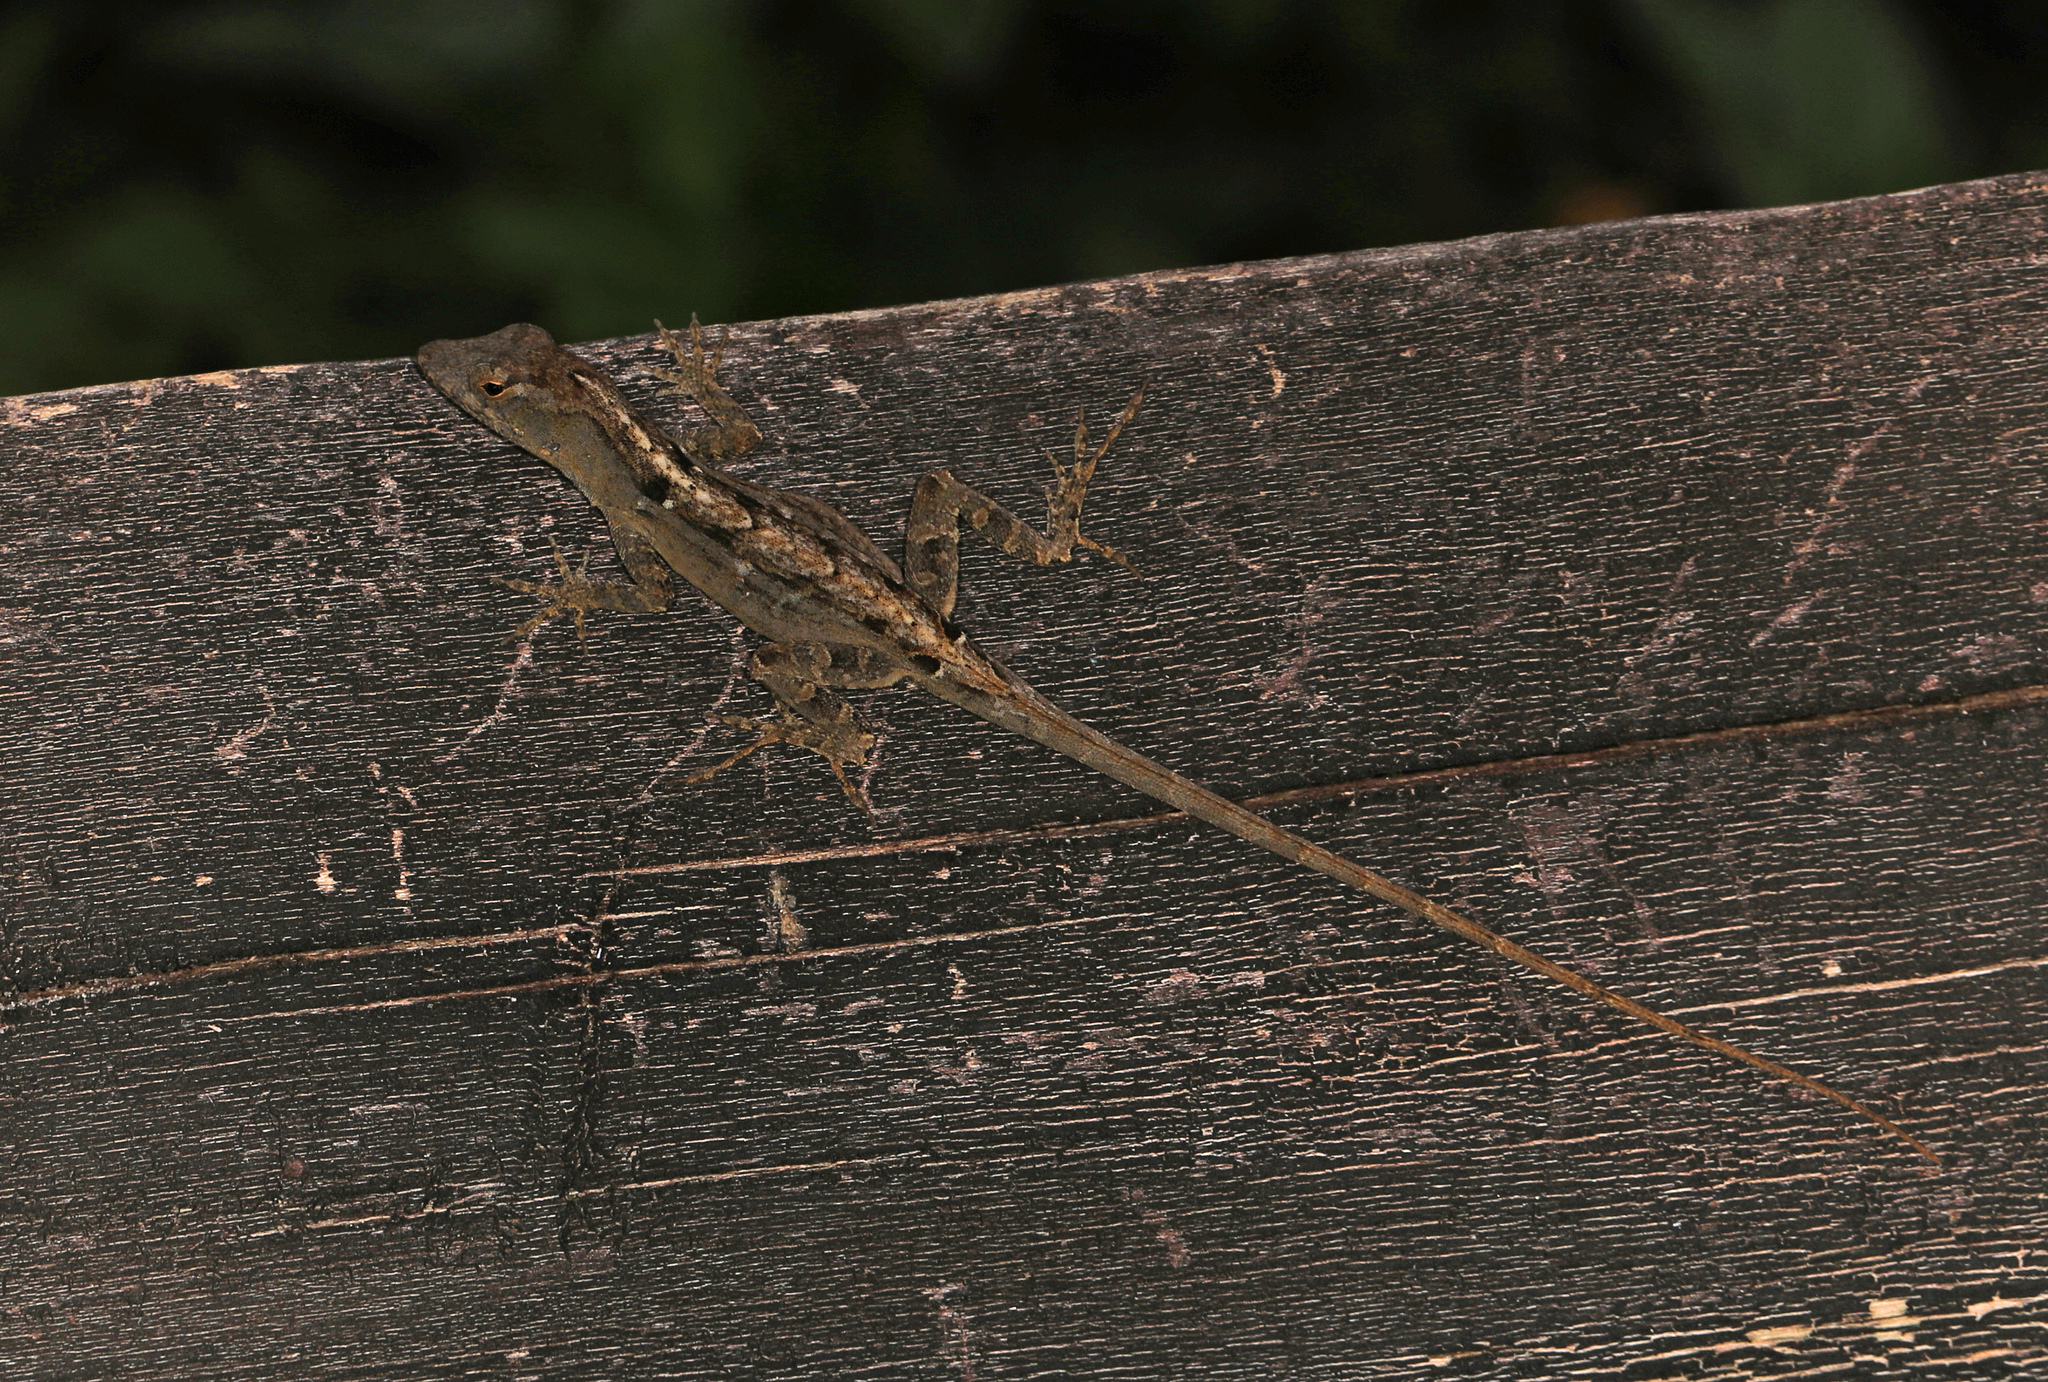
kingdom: Animalia
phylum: Chordata
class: Squamata
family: Dactyloidae
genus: Anolis
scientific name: Anolis sagrei
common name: Brown anole
